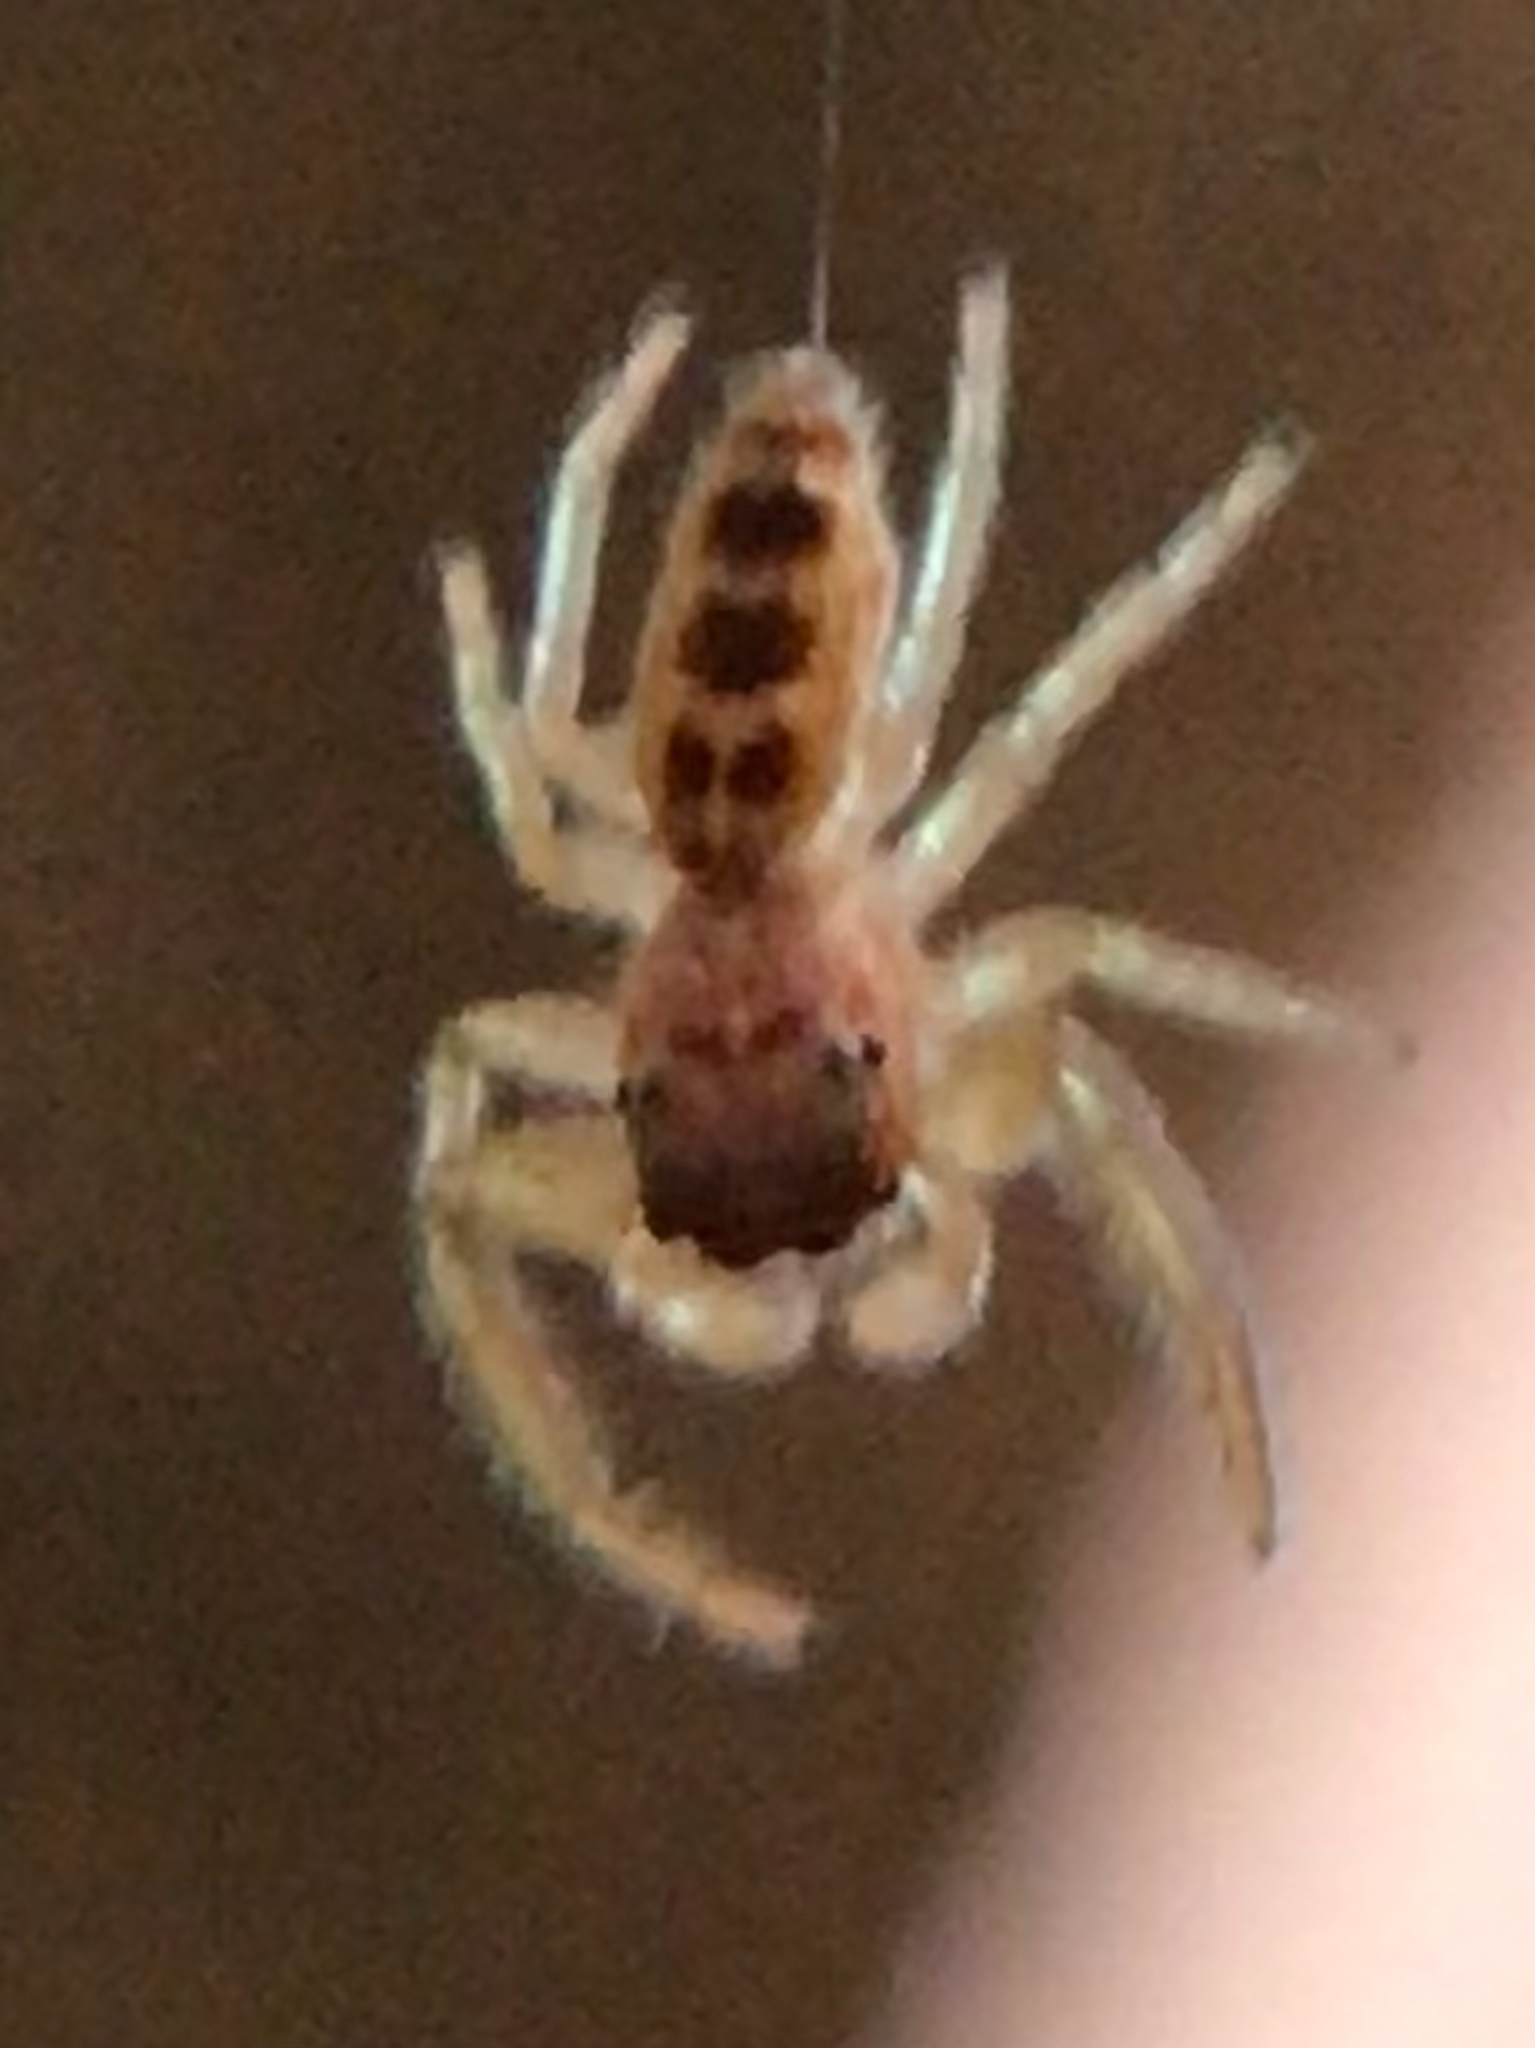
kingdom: Animalia
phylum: Arthropoda
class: Arachnida
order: Araneae
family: Salticidae
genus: Hentzia
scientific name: Hentzia mitrata
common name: White-jawed jumping spider
